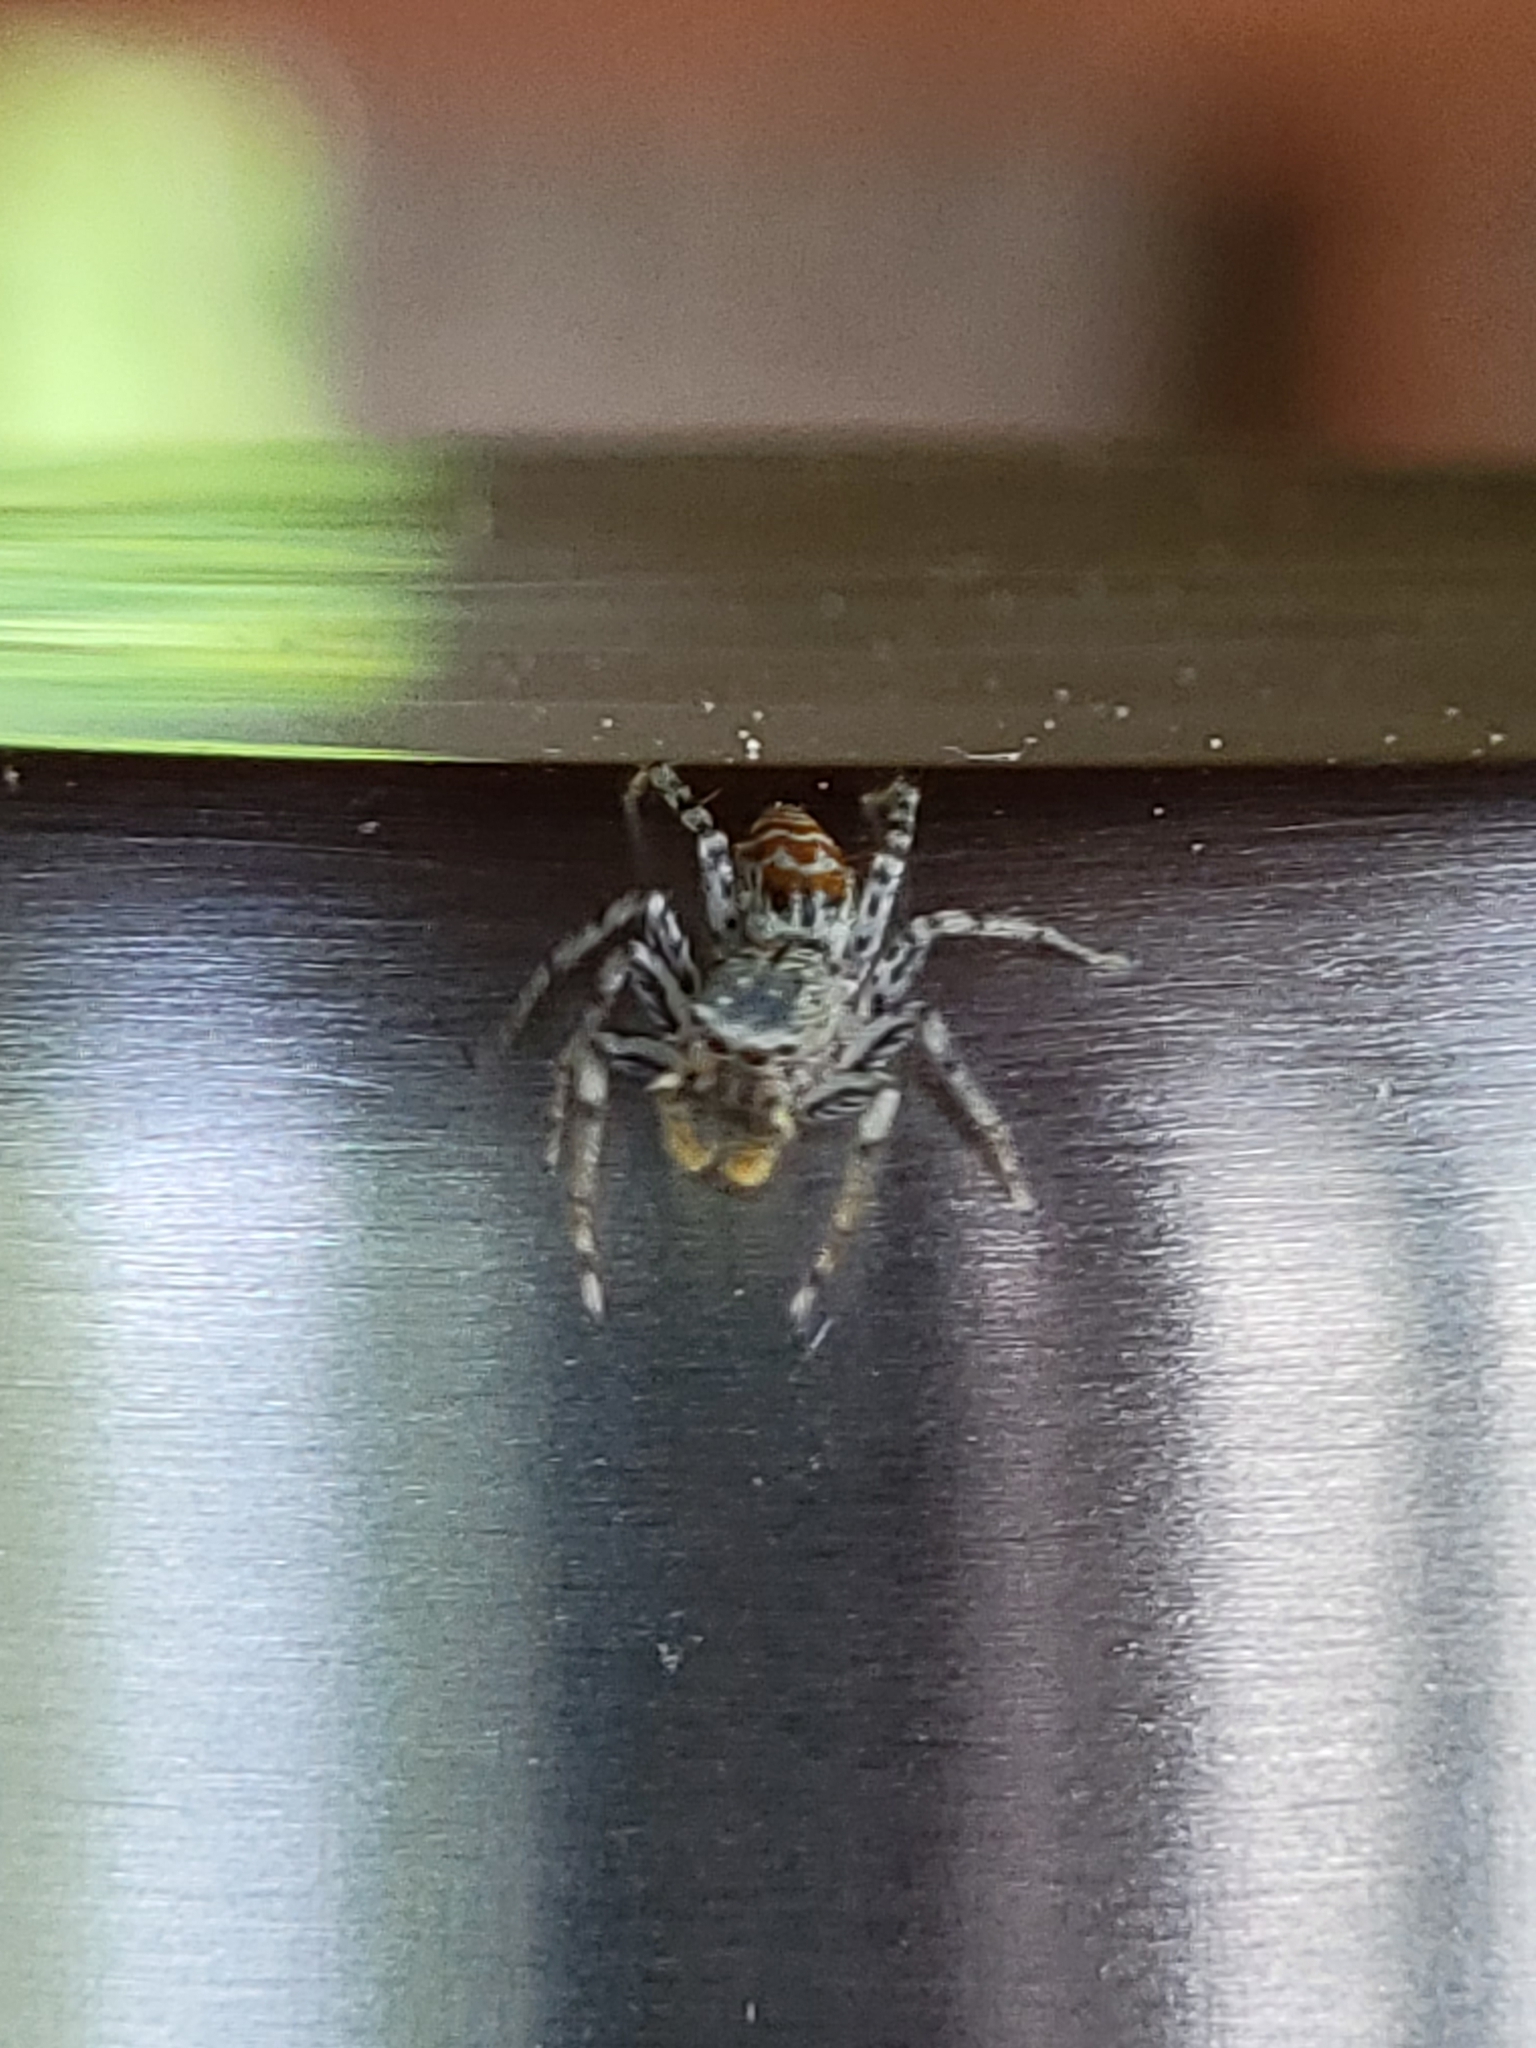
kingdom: Animalia
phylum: Arthropoda
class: Arachnida
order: Araneae
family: Salticidae
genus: Maevia
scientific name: Maevia inclemens
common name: Dimorphic jumper
